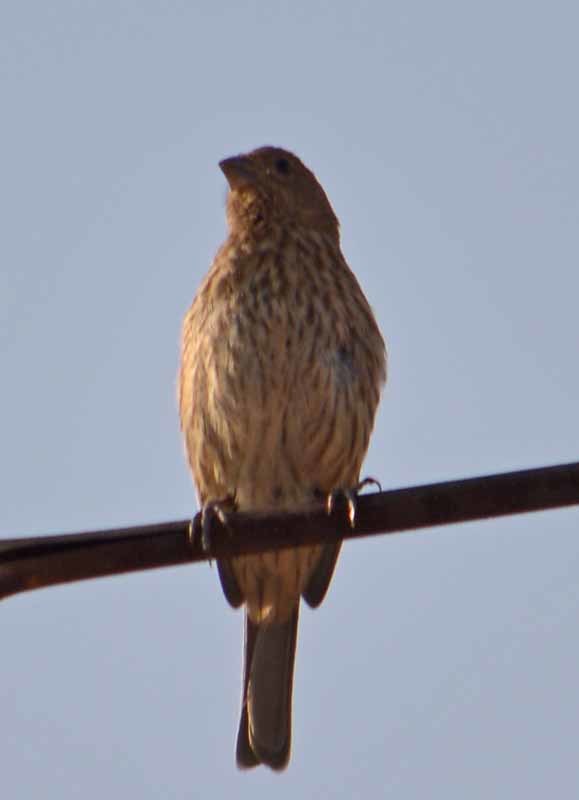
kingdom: Animalia
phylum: Chordata
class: Aves
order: Passeriformes
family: Fringillidae
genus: Haemorhous
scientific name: Haemorhous mexicanus
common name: House finch
